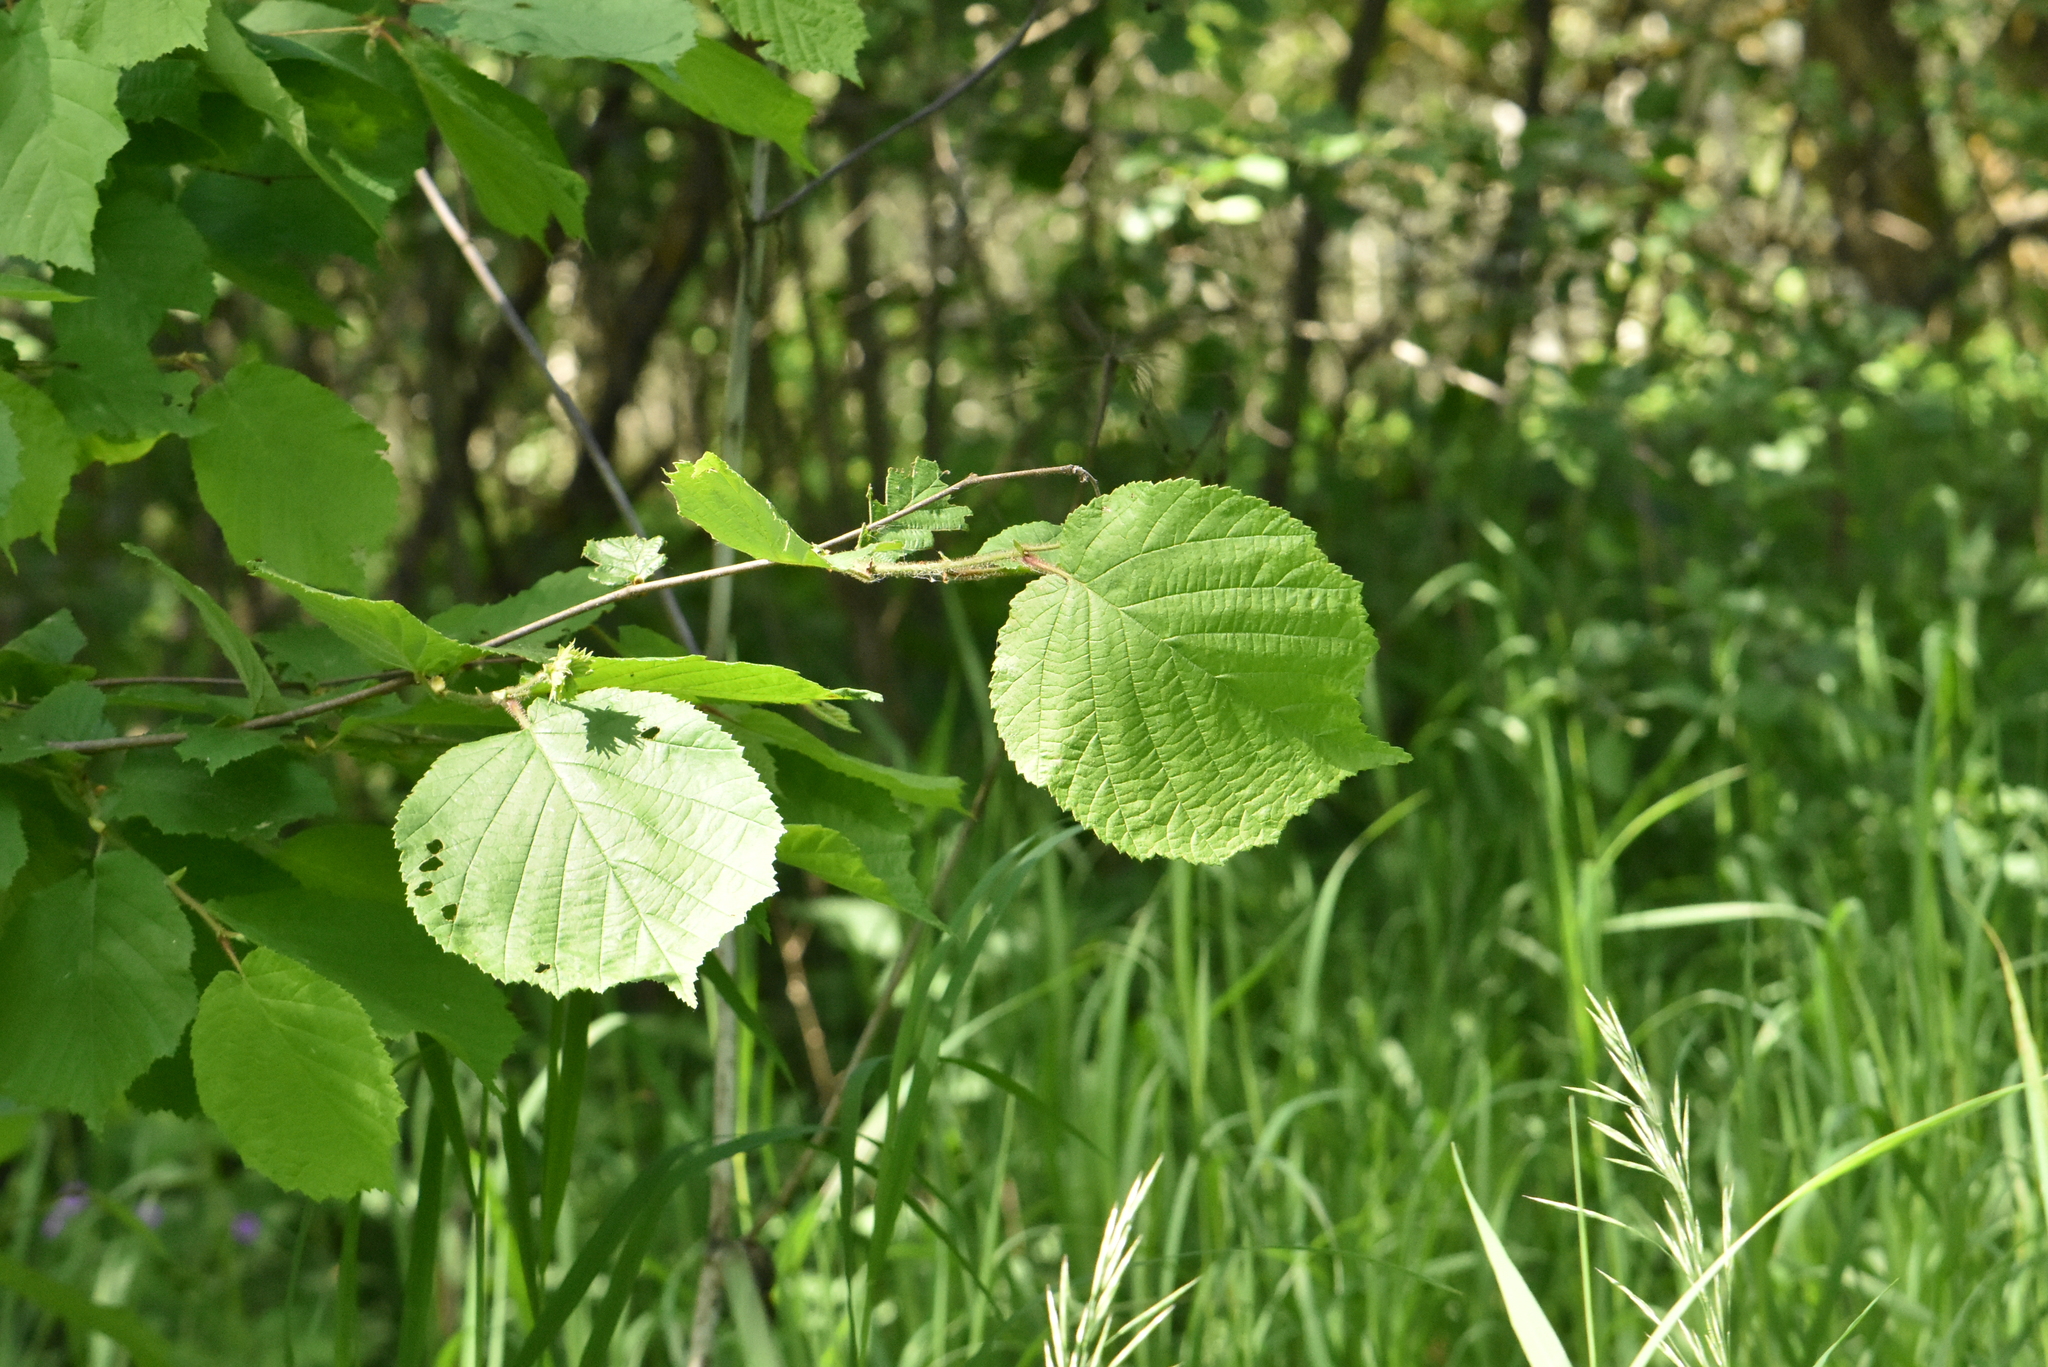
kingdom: Plantae
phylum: Tracheophyta
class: Magnoliopsida
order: Fagales
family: Betulaceae
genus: Corylus
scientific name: Corylus avellana
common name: European hazel
